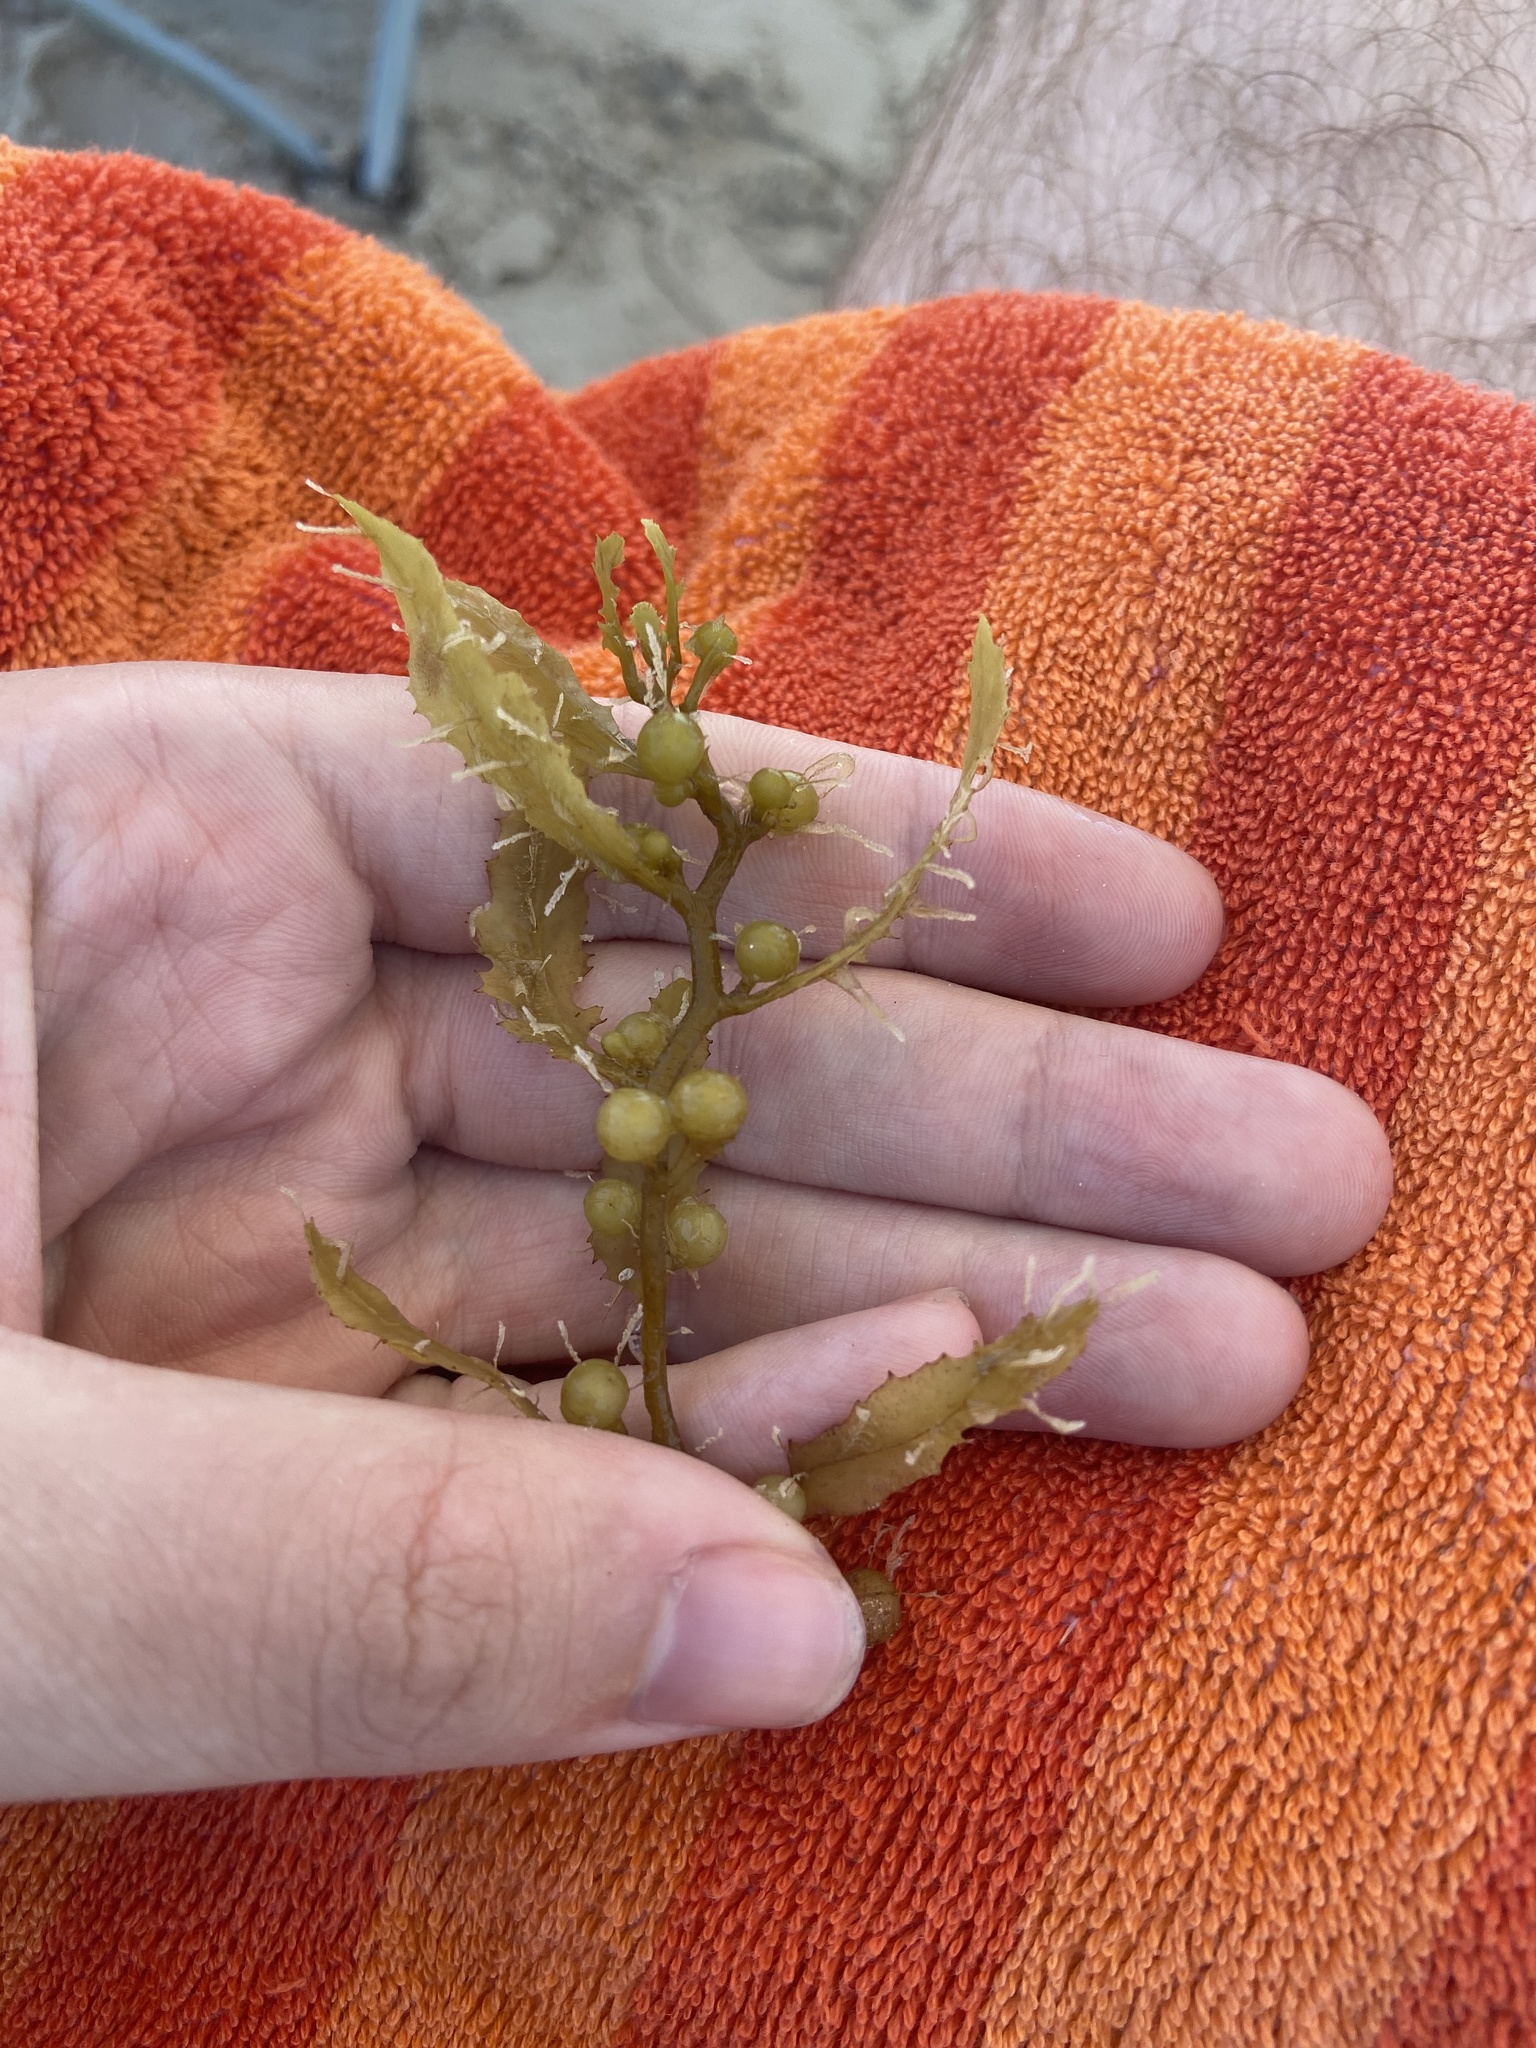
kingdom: Chromista
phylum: Ochrophyta
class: Phaeophyceae
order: Fucales
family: Sargassaceae
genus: Sargassum
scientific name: Sargassum fluitans
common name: Sargassum seaweed
